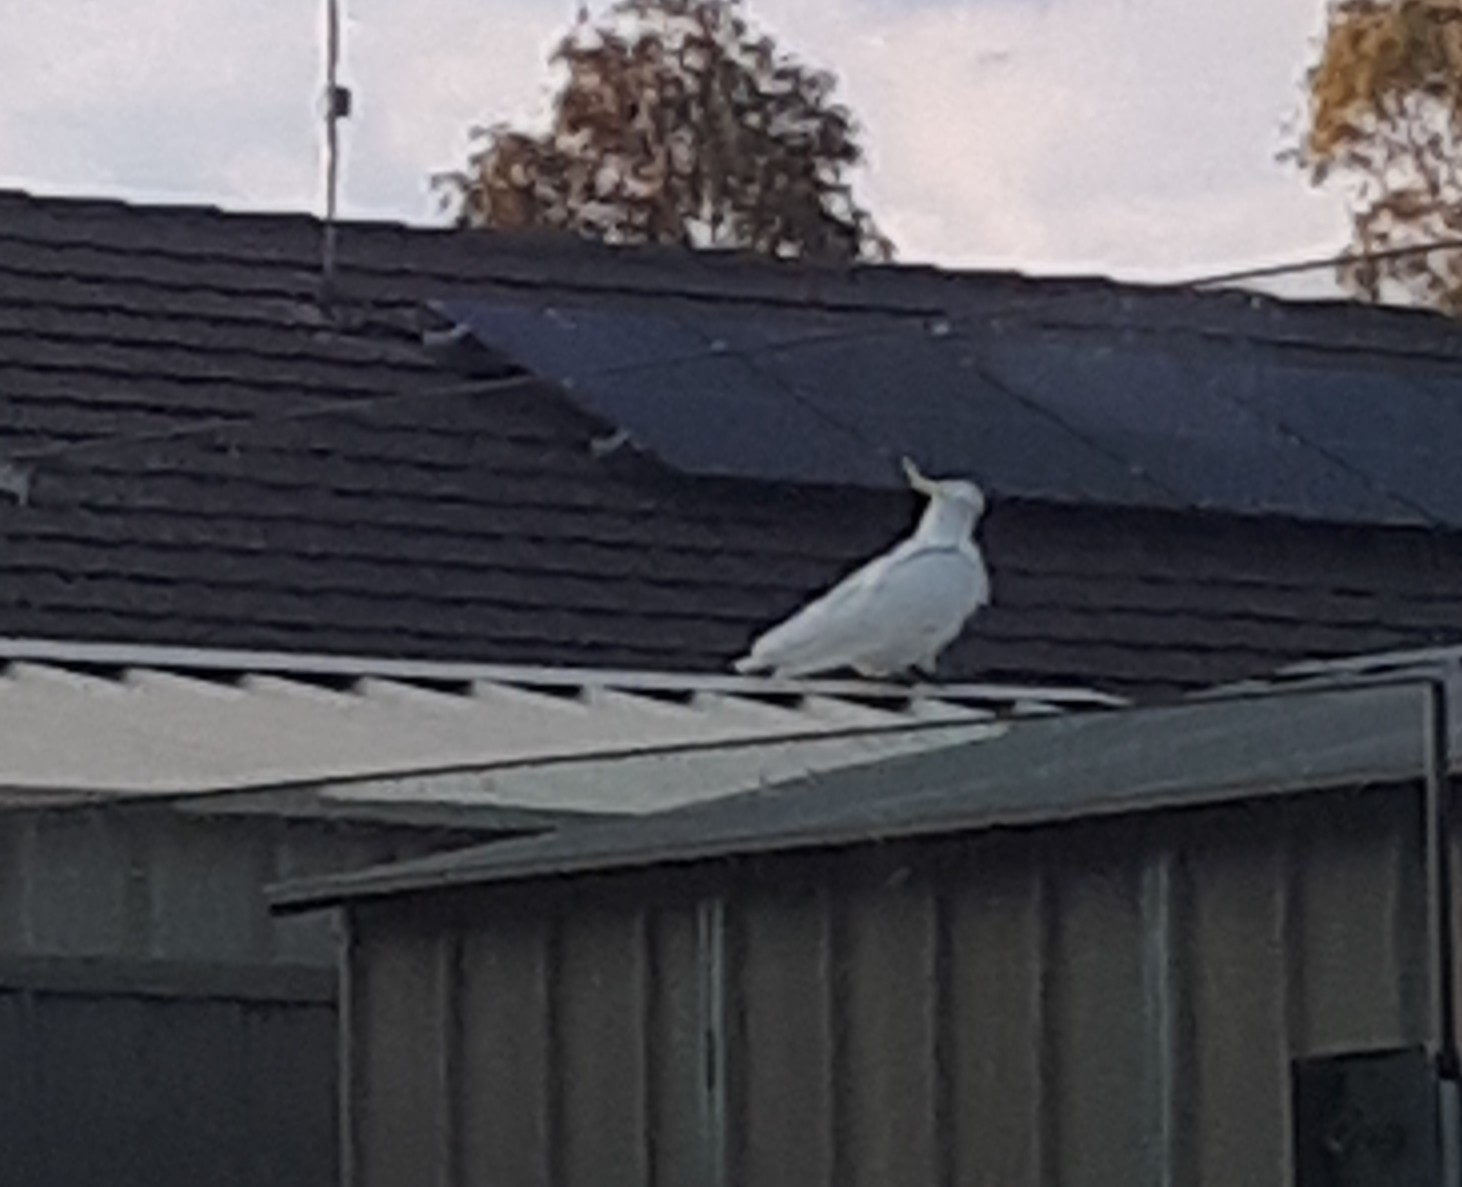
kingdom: Animalia
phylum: Chordata
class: Aves
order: Psittaciformes
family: Psittacidae
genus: Cacatua
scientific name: Cacatua galerita
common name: Sulphur-crested cockatoo
